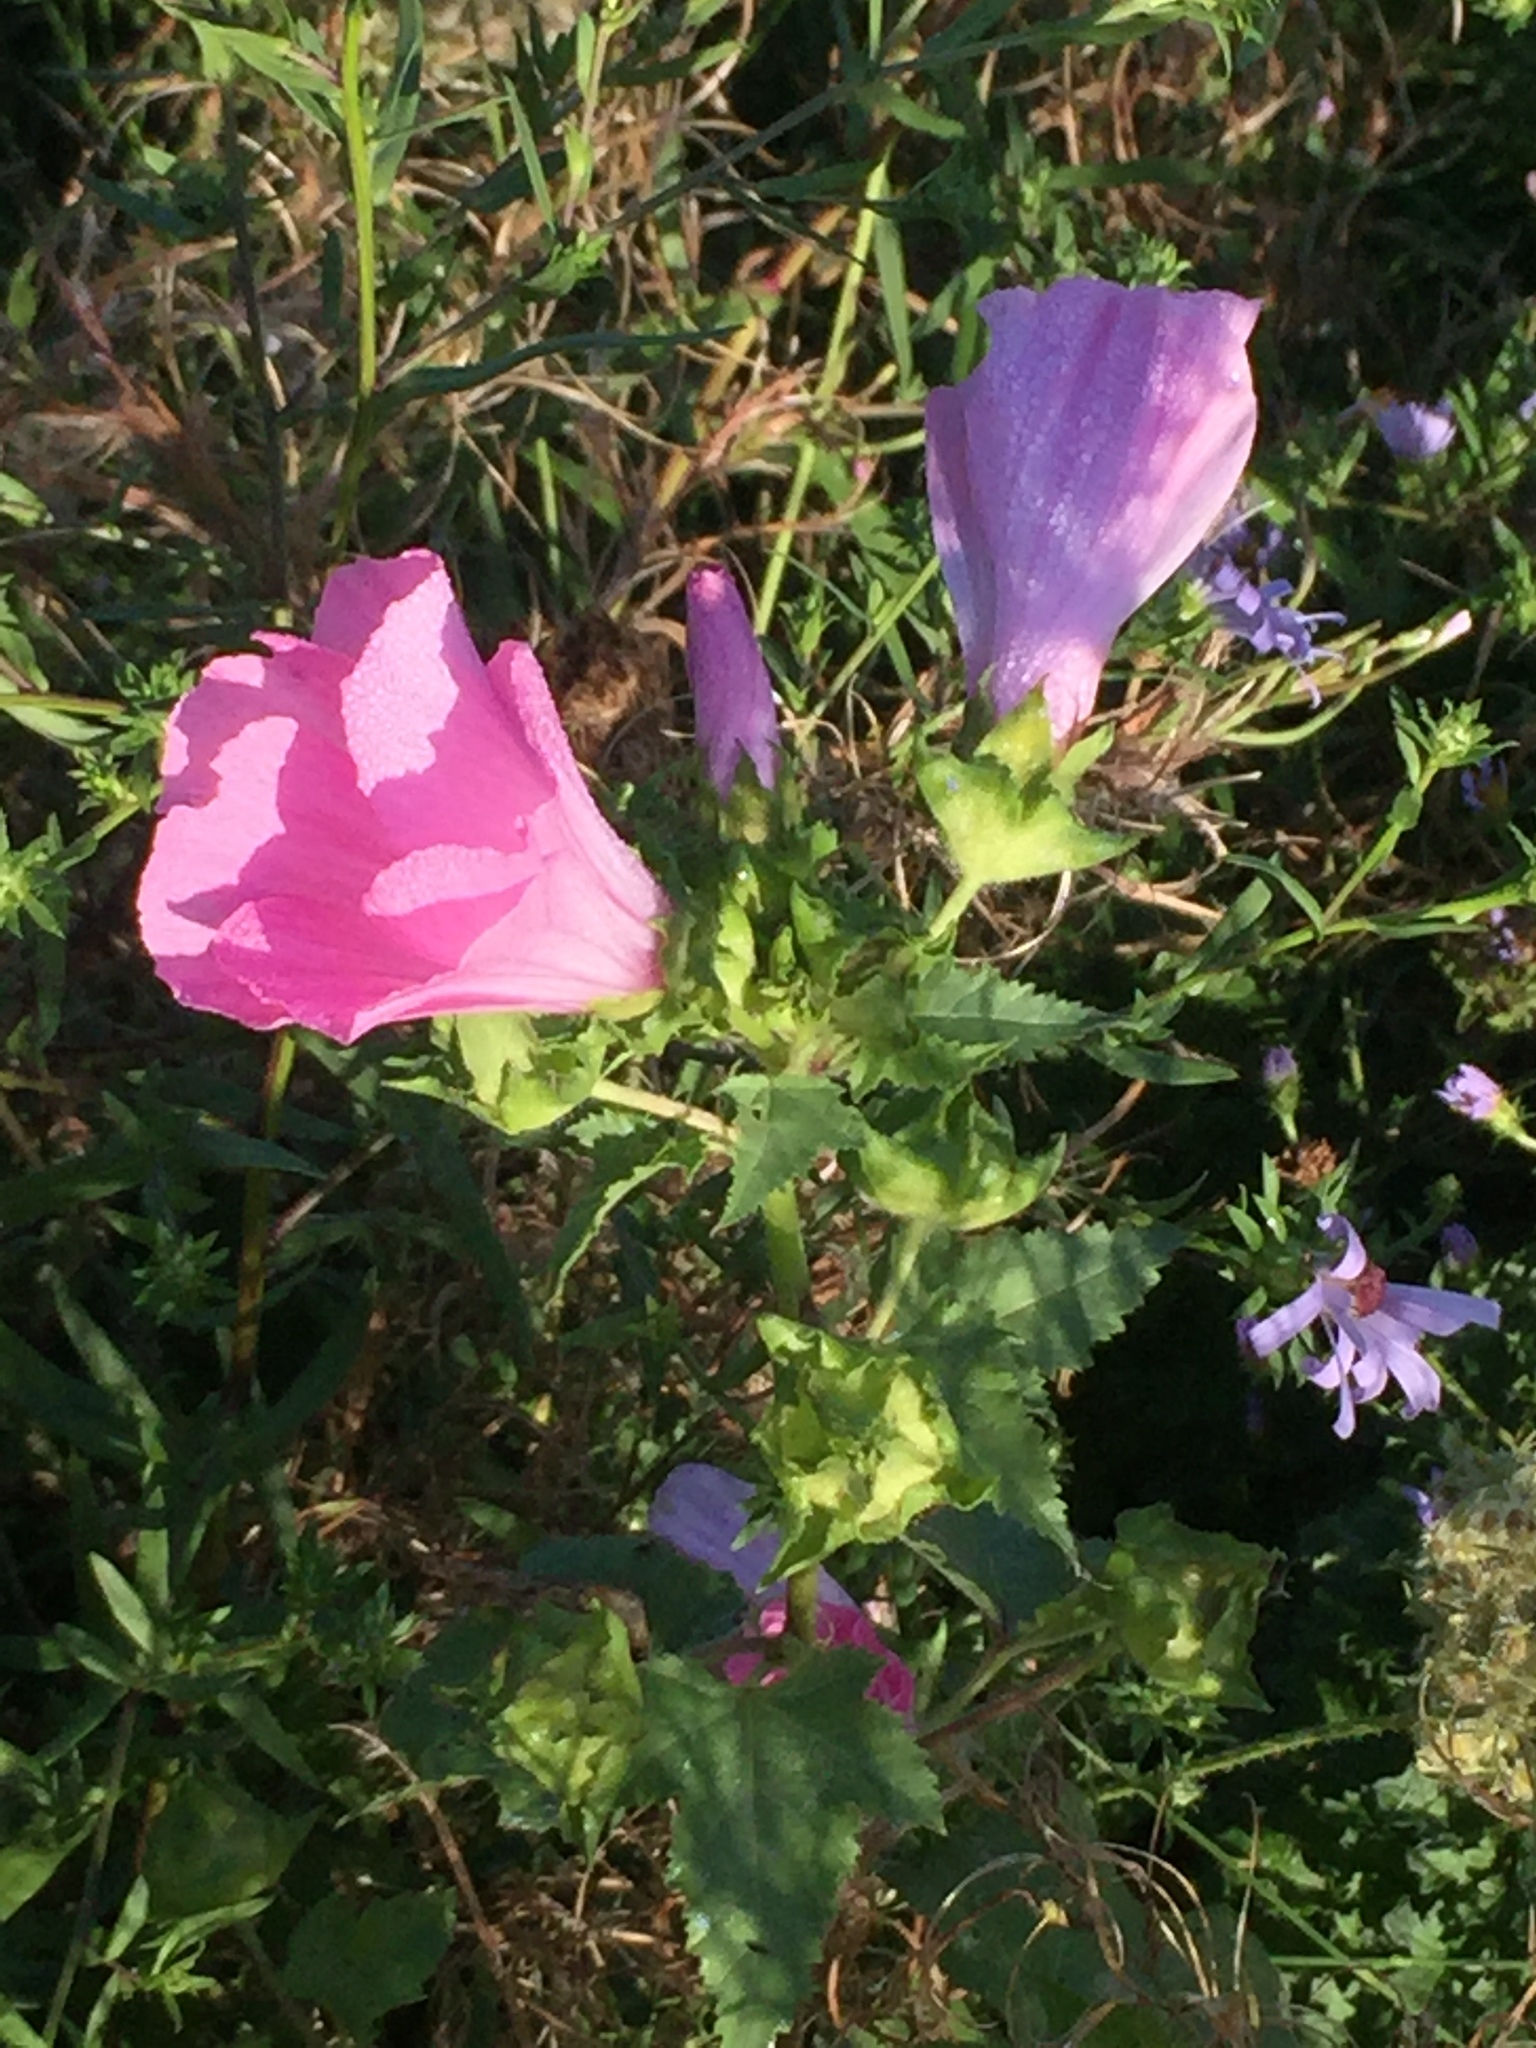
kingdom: Plantae
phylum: Tracheophyta
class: Magnoliopsida
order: Malvales
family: Malvaceae
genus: Malva
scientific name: Malva trimestris
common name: Royal mallow
